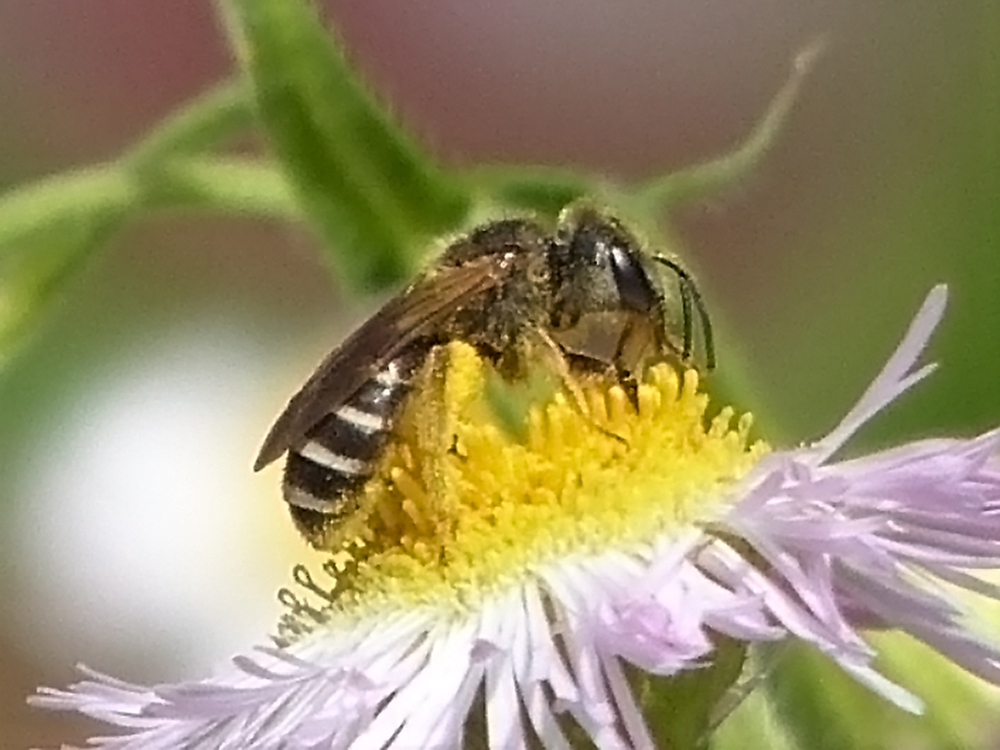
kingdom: Animalia
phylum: Arthropoda
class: Insecta
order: Hymenoptera
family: Halictidae
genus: Halictus
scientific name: Halictus ligatus
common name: Ligated furrow bee
